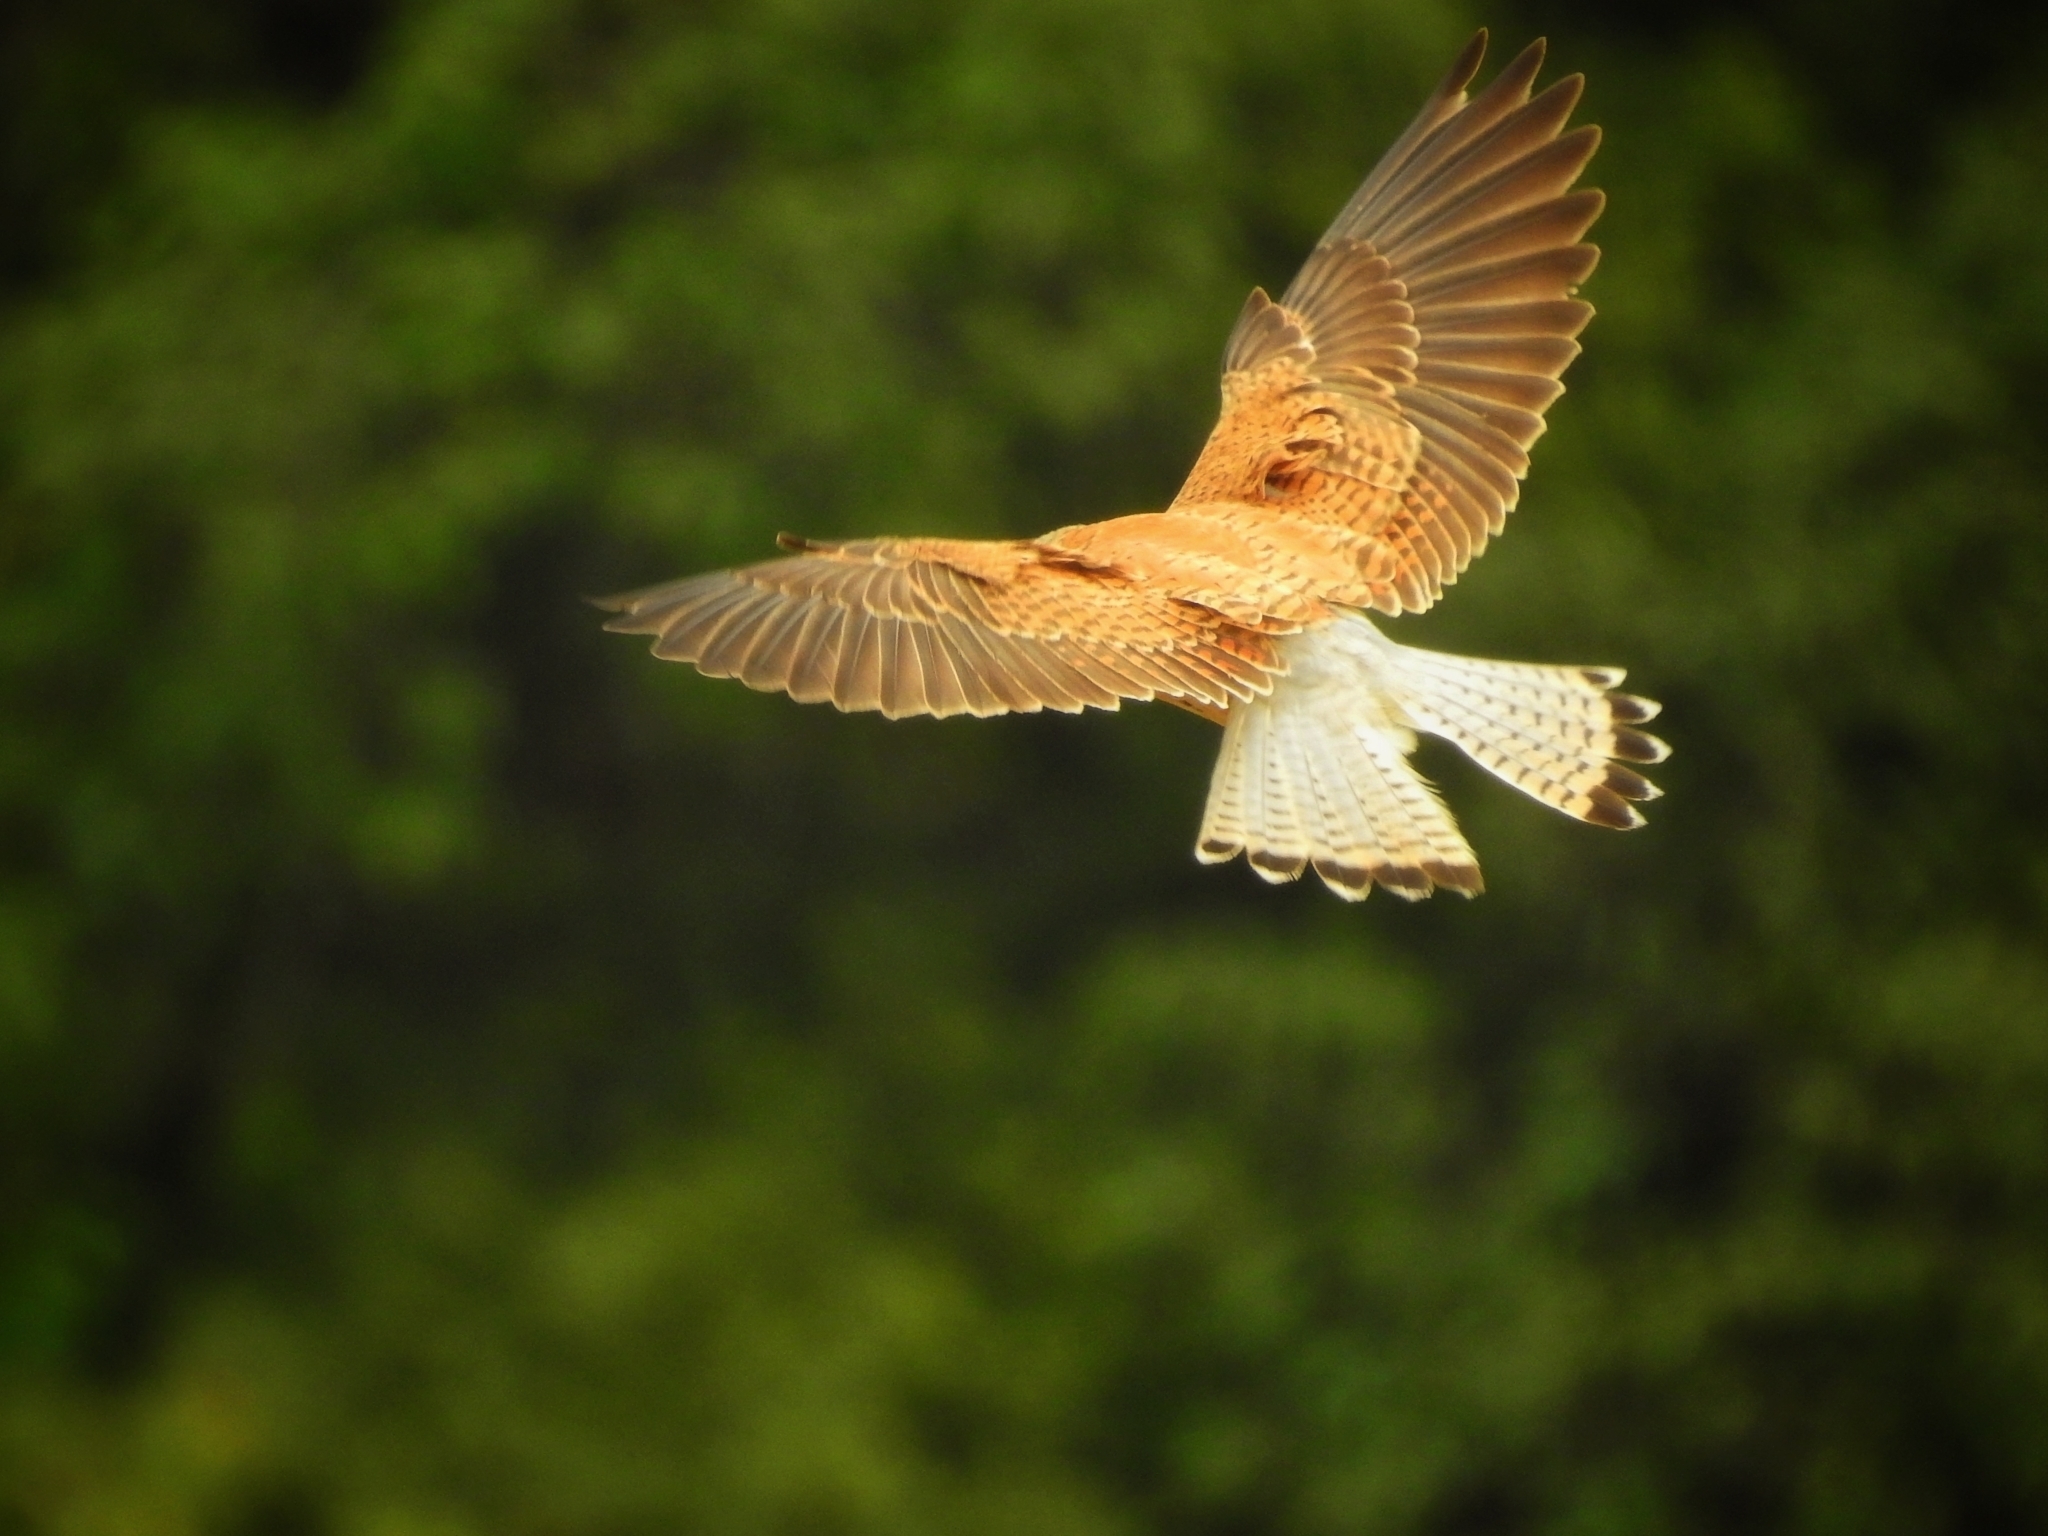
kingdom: Animalia
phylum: Chordata
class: Aves
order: Falconiformes
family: Falconidae
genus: Falco
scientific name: Falco naumanni
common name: Lesser kestrel
